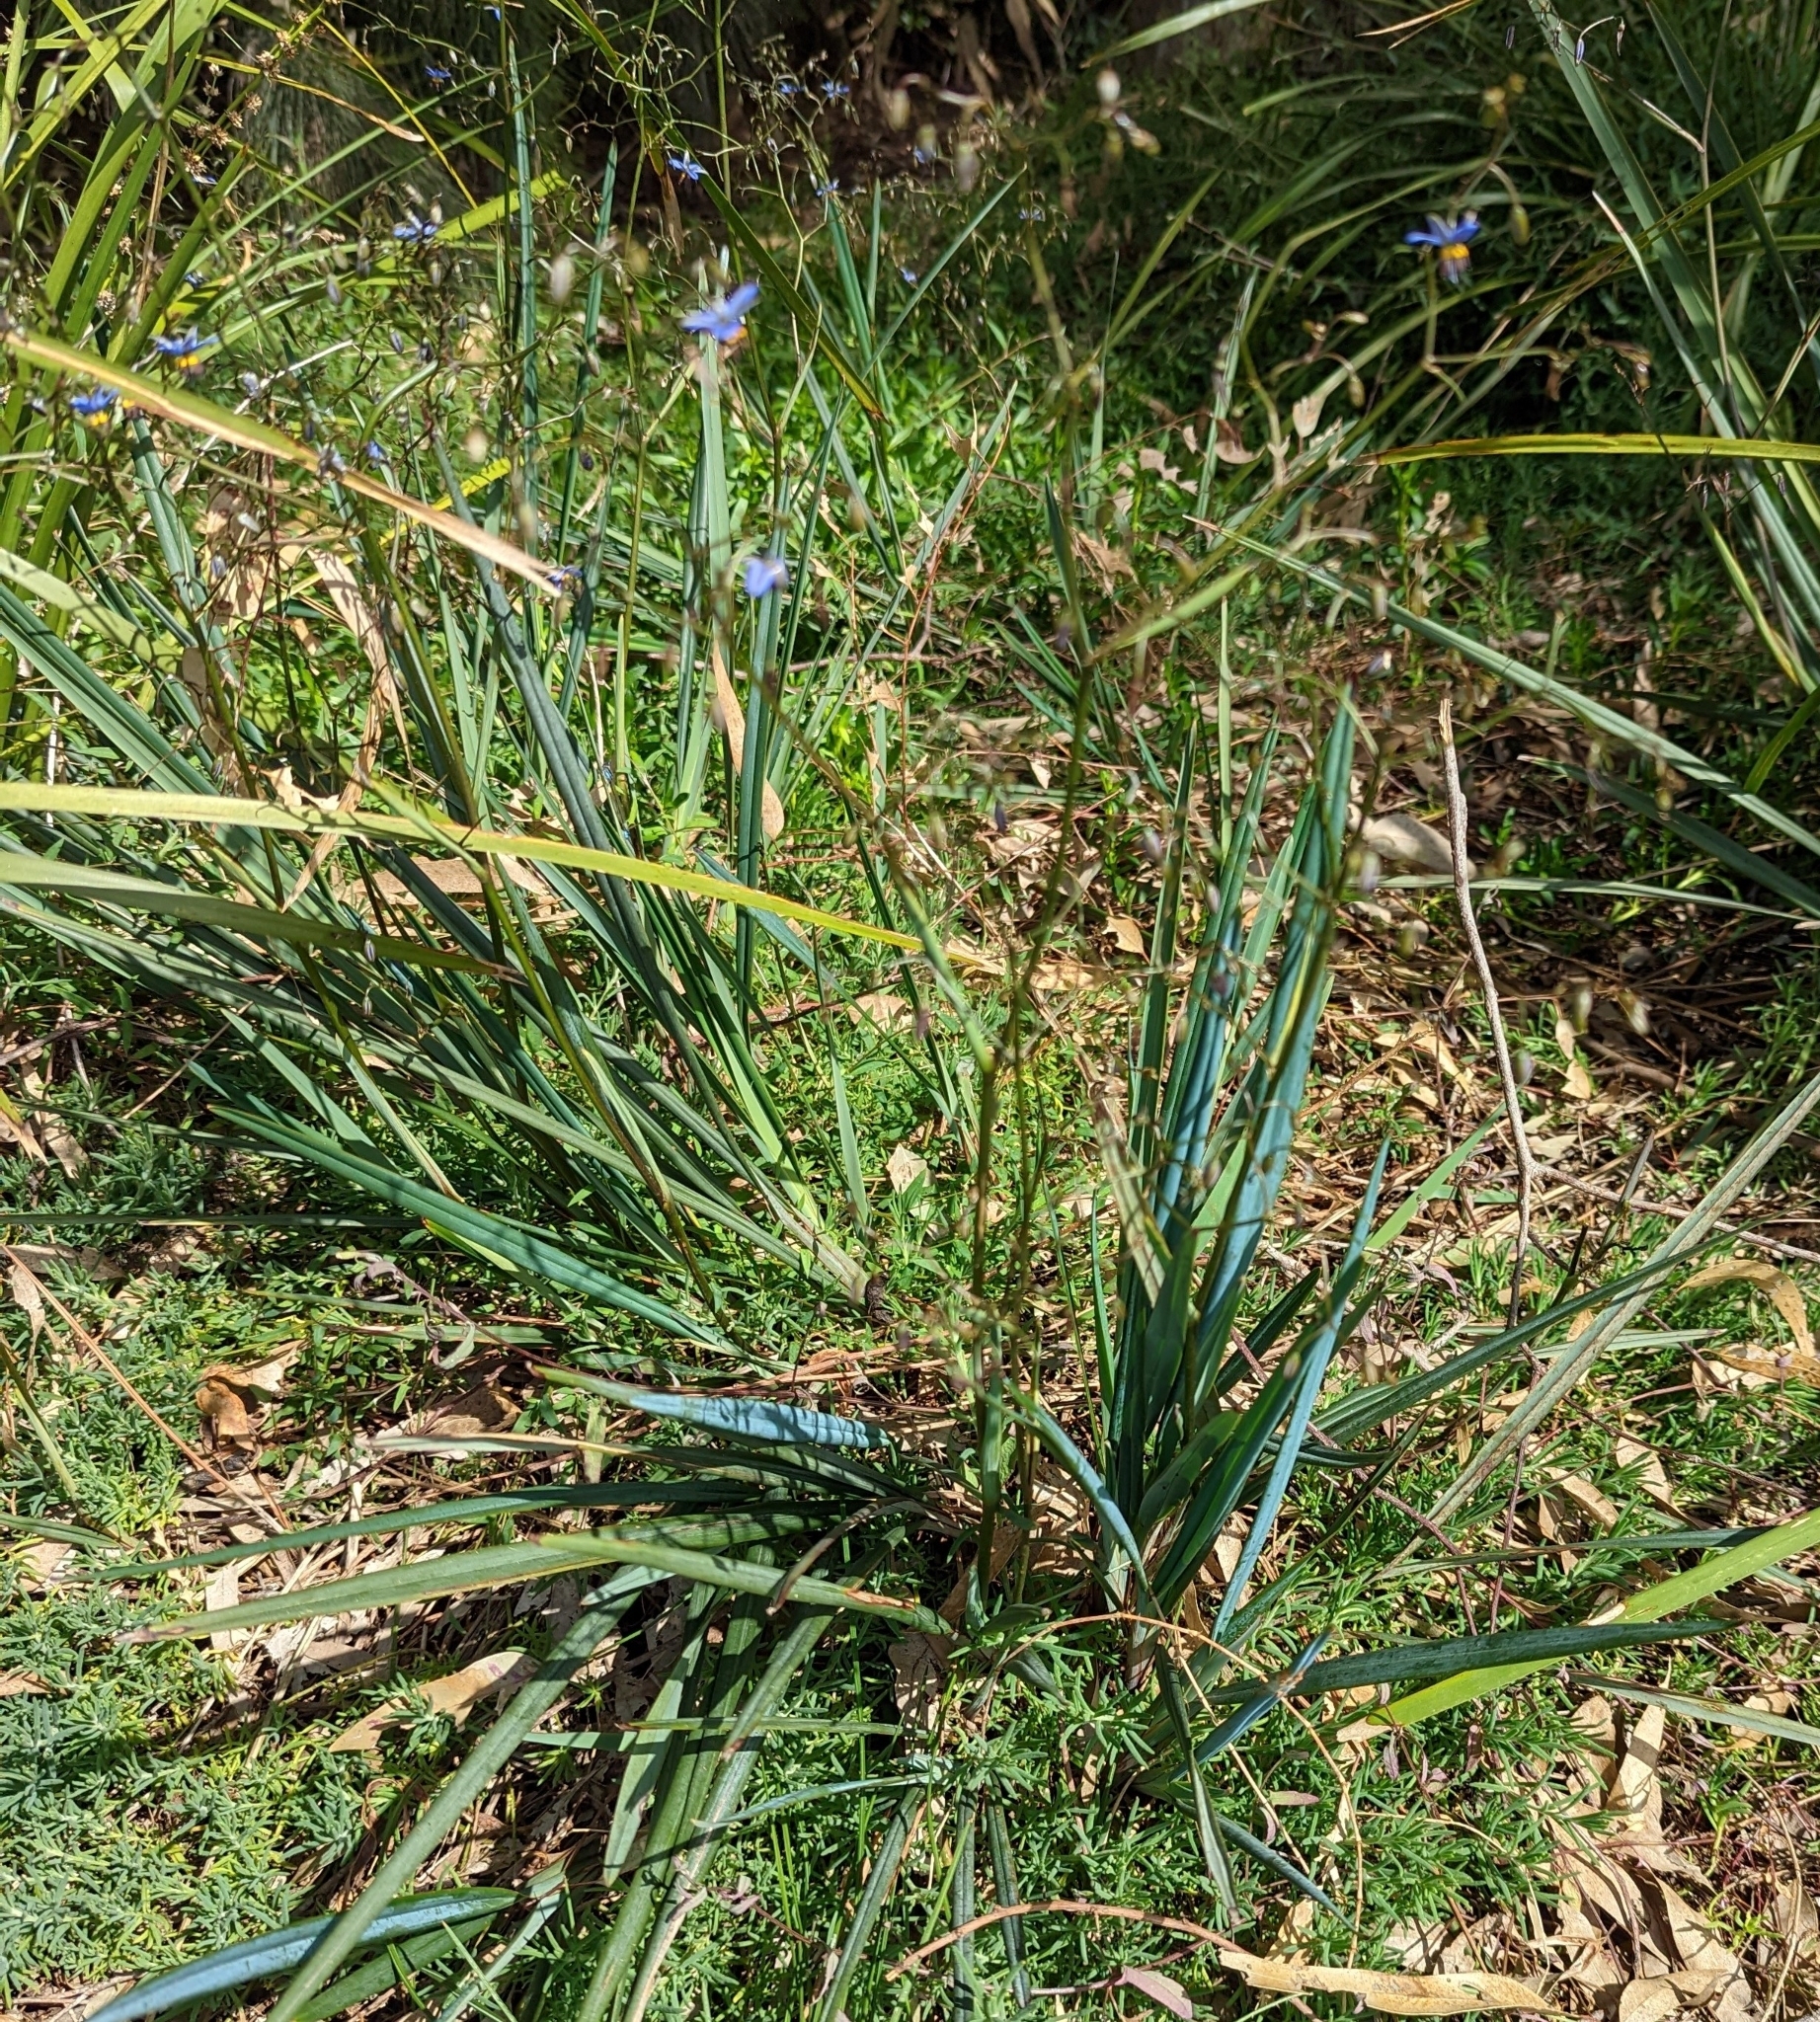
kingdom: Plantae
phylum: Tracheophyta
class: Liliopsida
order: Asparagales
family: Asphodelaceae
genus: Dianella
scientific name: Dianella revoluta
